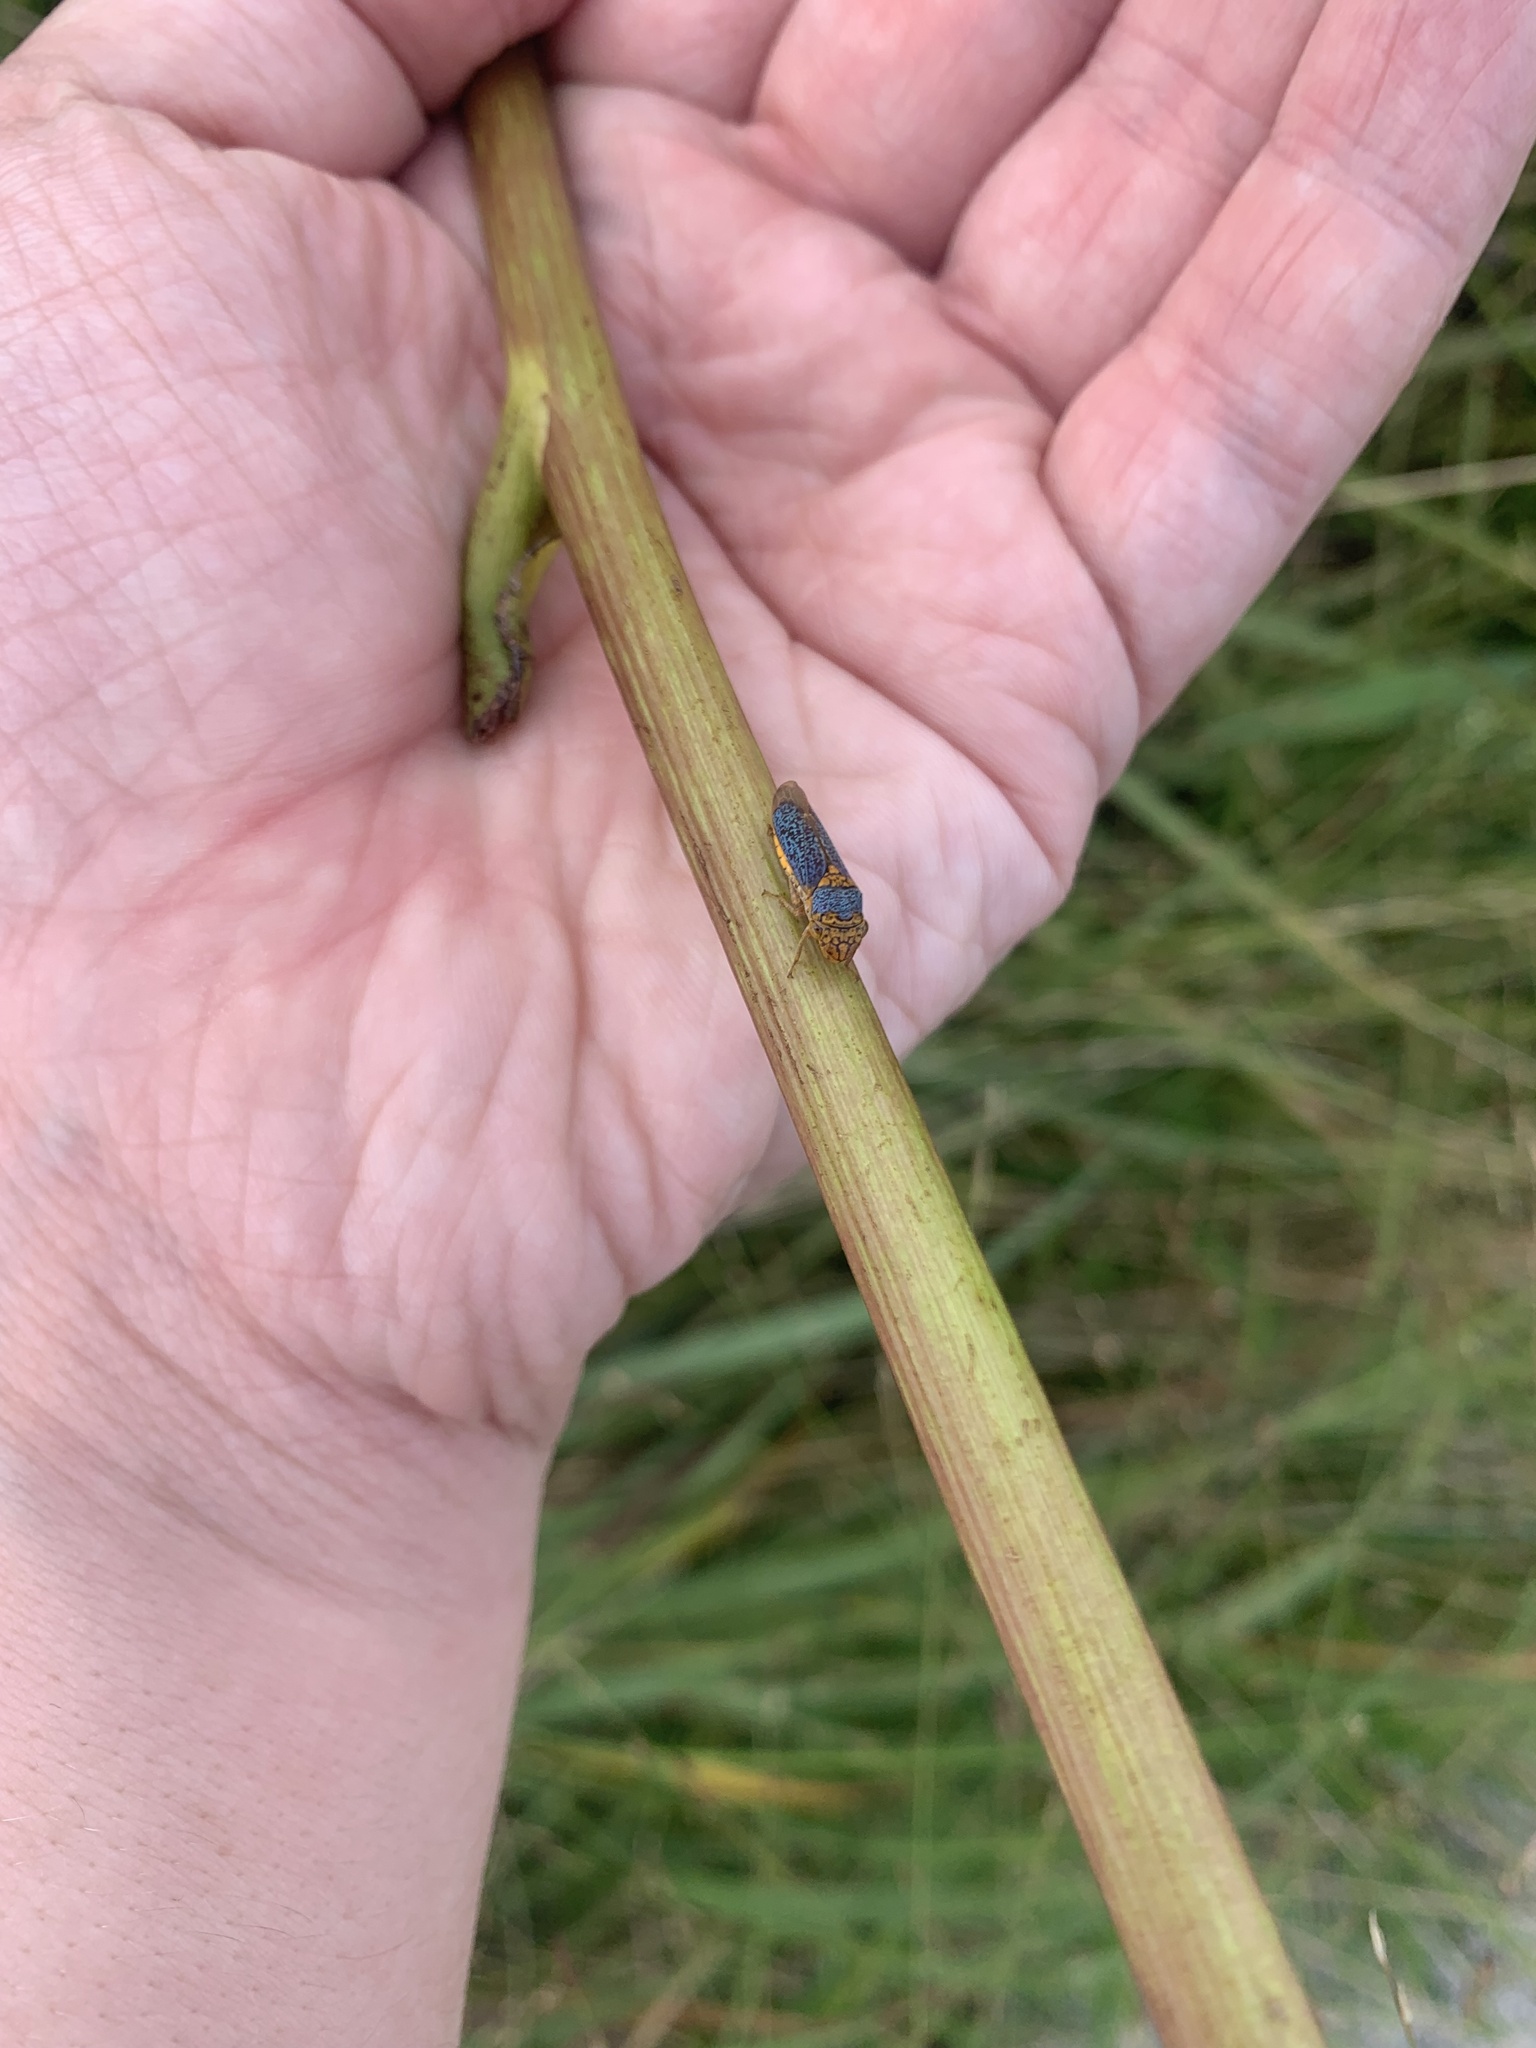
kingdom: Animalia
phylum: Arthropoda
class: Insecta
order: Hemiptera
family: Cicadellidae
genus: Oncometopia
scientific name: Oncometopia orbona
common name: Broad-headed sharpshooter
